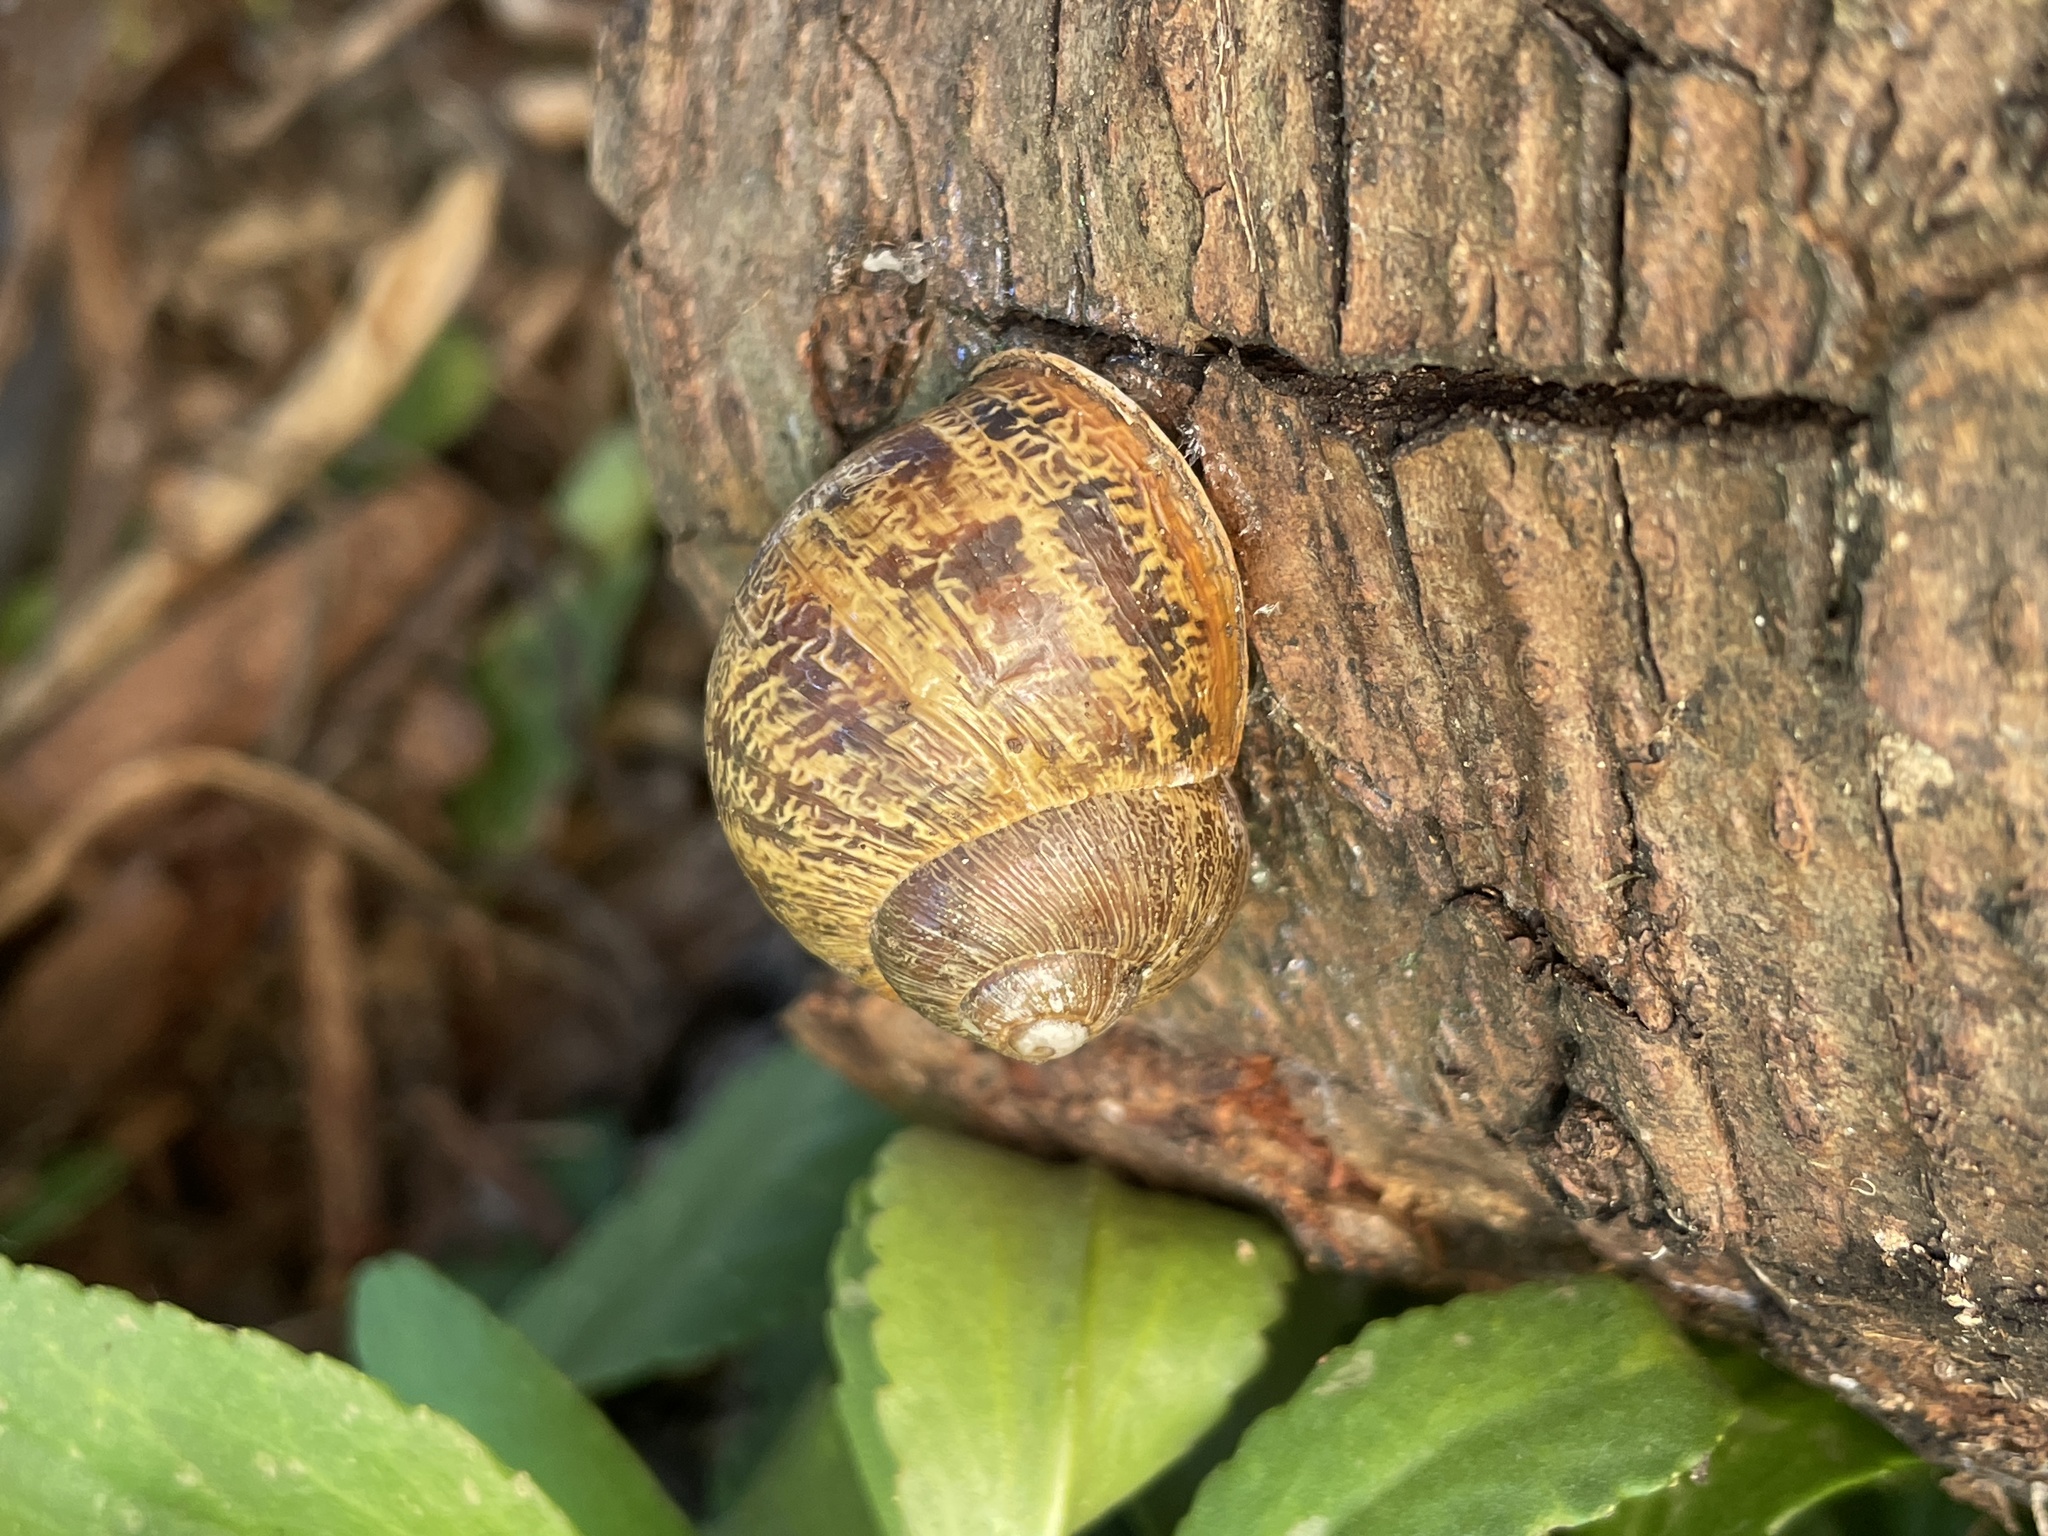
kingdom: Animalia
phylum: Mollusca
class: Gastropoda
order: Stylommatophora
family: Helicidae
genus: Cornu
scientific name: Cornu aspersum
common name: Brown garden snail
